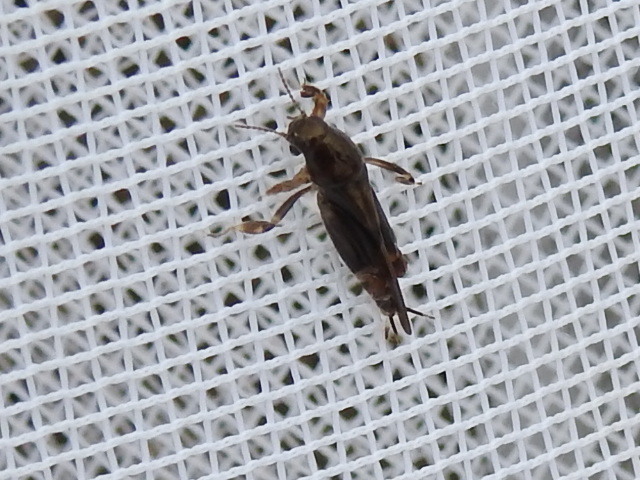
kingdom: Animalia
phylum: Arthropoda
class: Insecta
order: Orthoptera
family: Tridactylidae
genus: Neotridactylus
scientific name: Neotridactylus apicialis
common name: Larger pygmy locust
